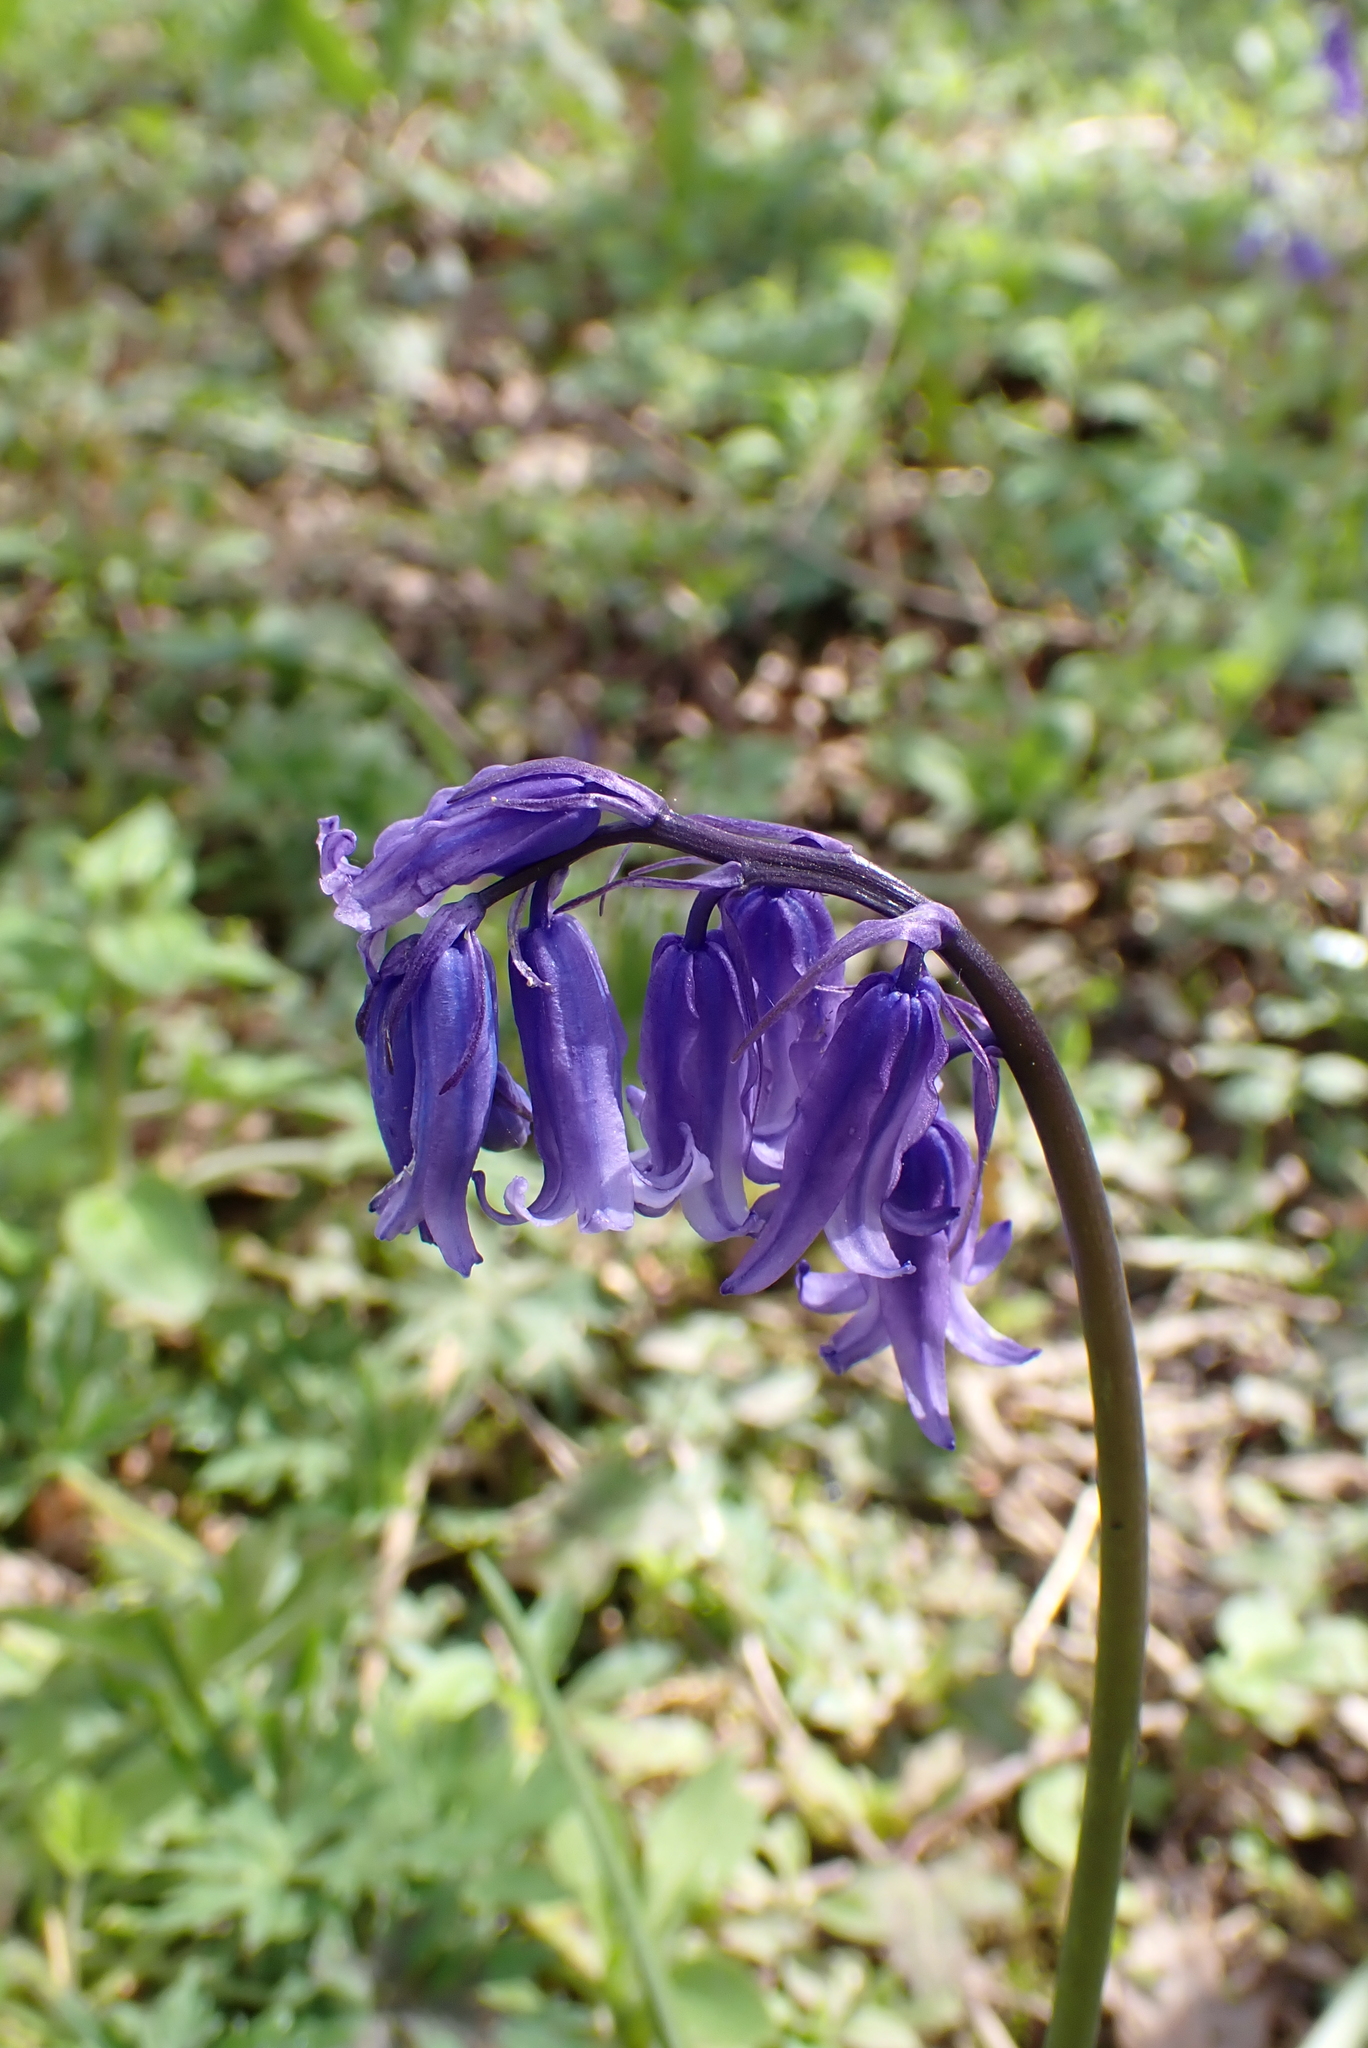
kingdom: Plantae
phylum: Tracheophyta
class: Liliopsida
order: Asparagales
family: Asparagaceae
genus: Hyacinthoides
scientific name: Hyacinthoides non-scripta
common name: Bluebell
